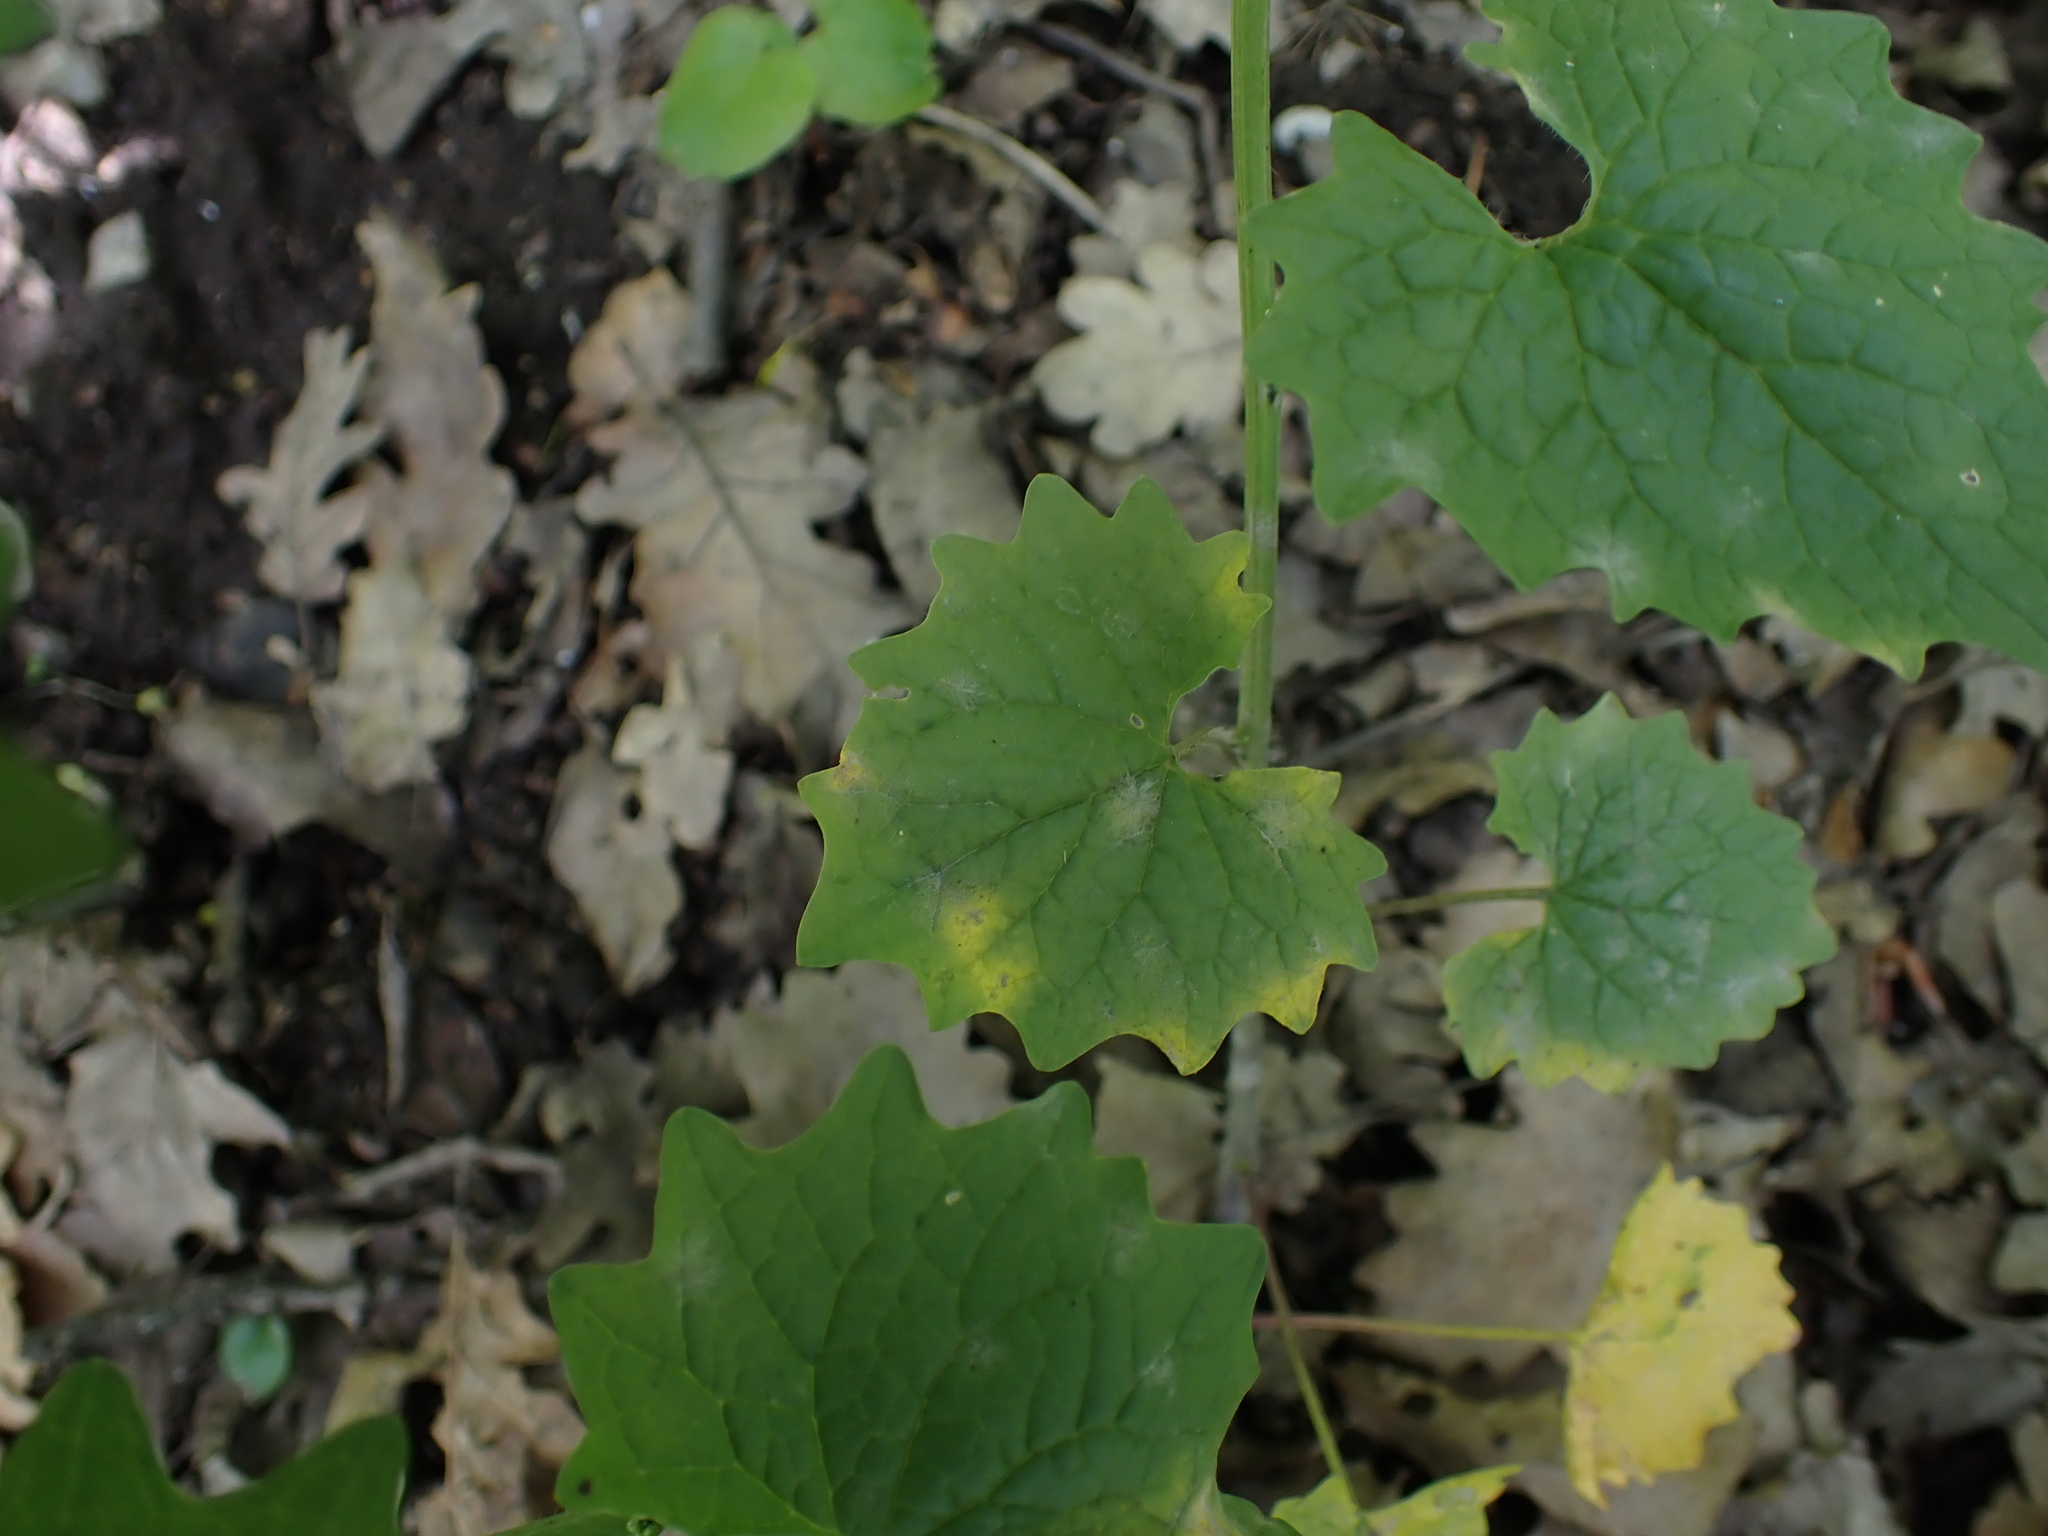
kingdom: Chromista
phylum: Oomycota
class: Peronosporea
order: Peronosporales
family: Peronosporaceae
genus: Hyaloperonospora
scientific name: Hyaloperonospora niessliana
